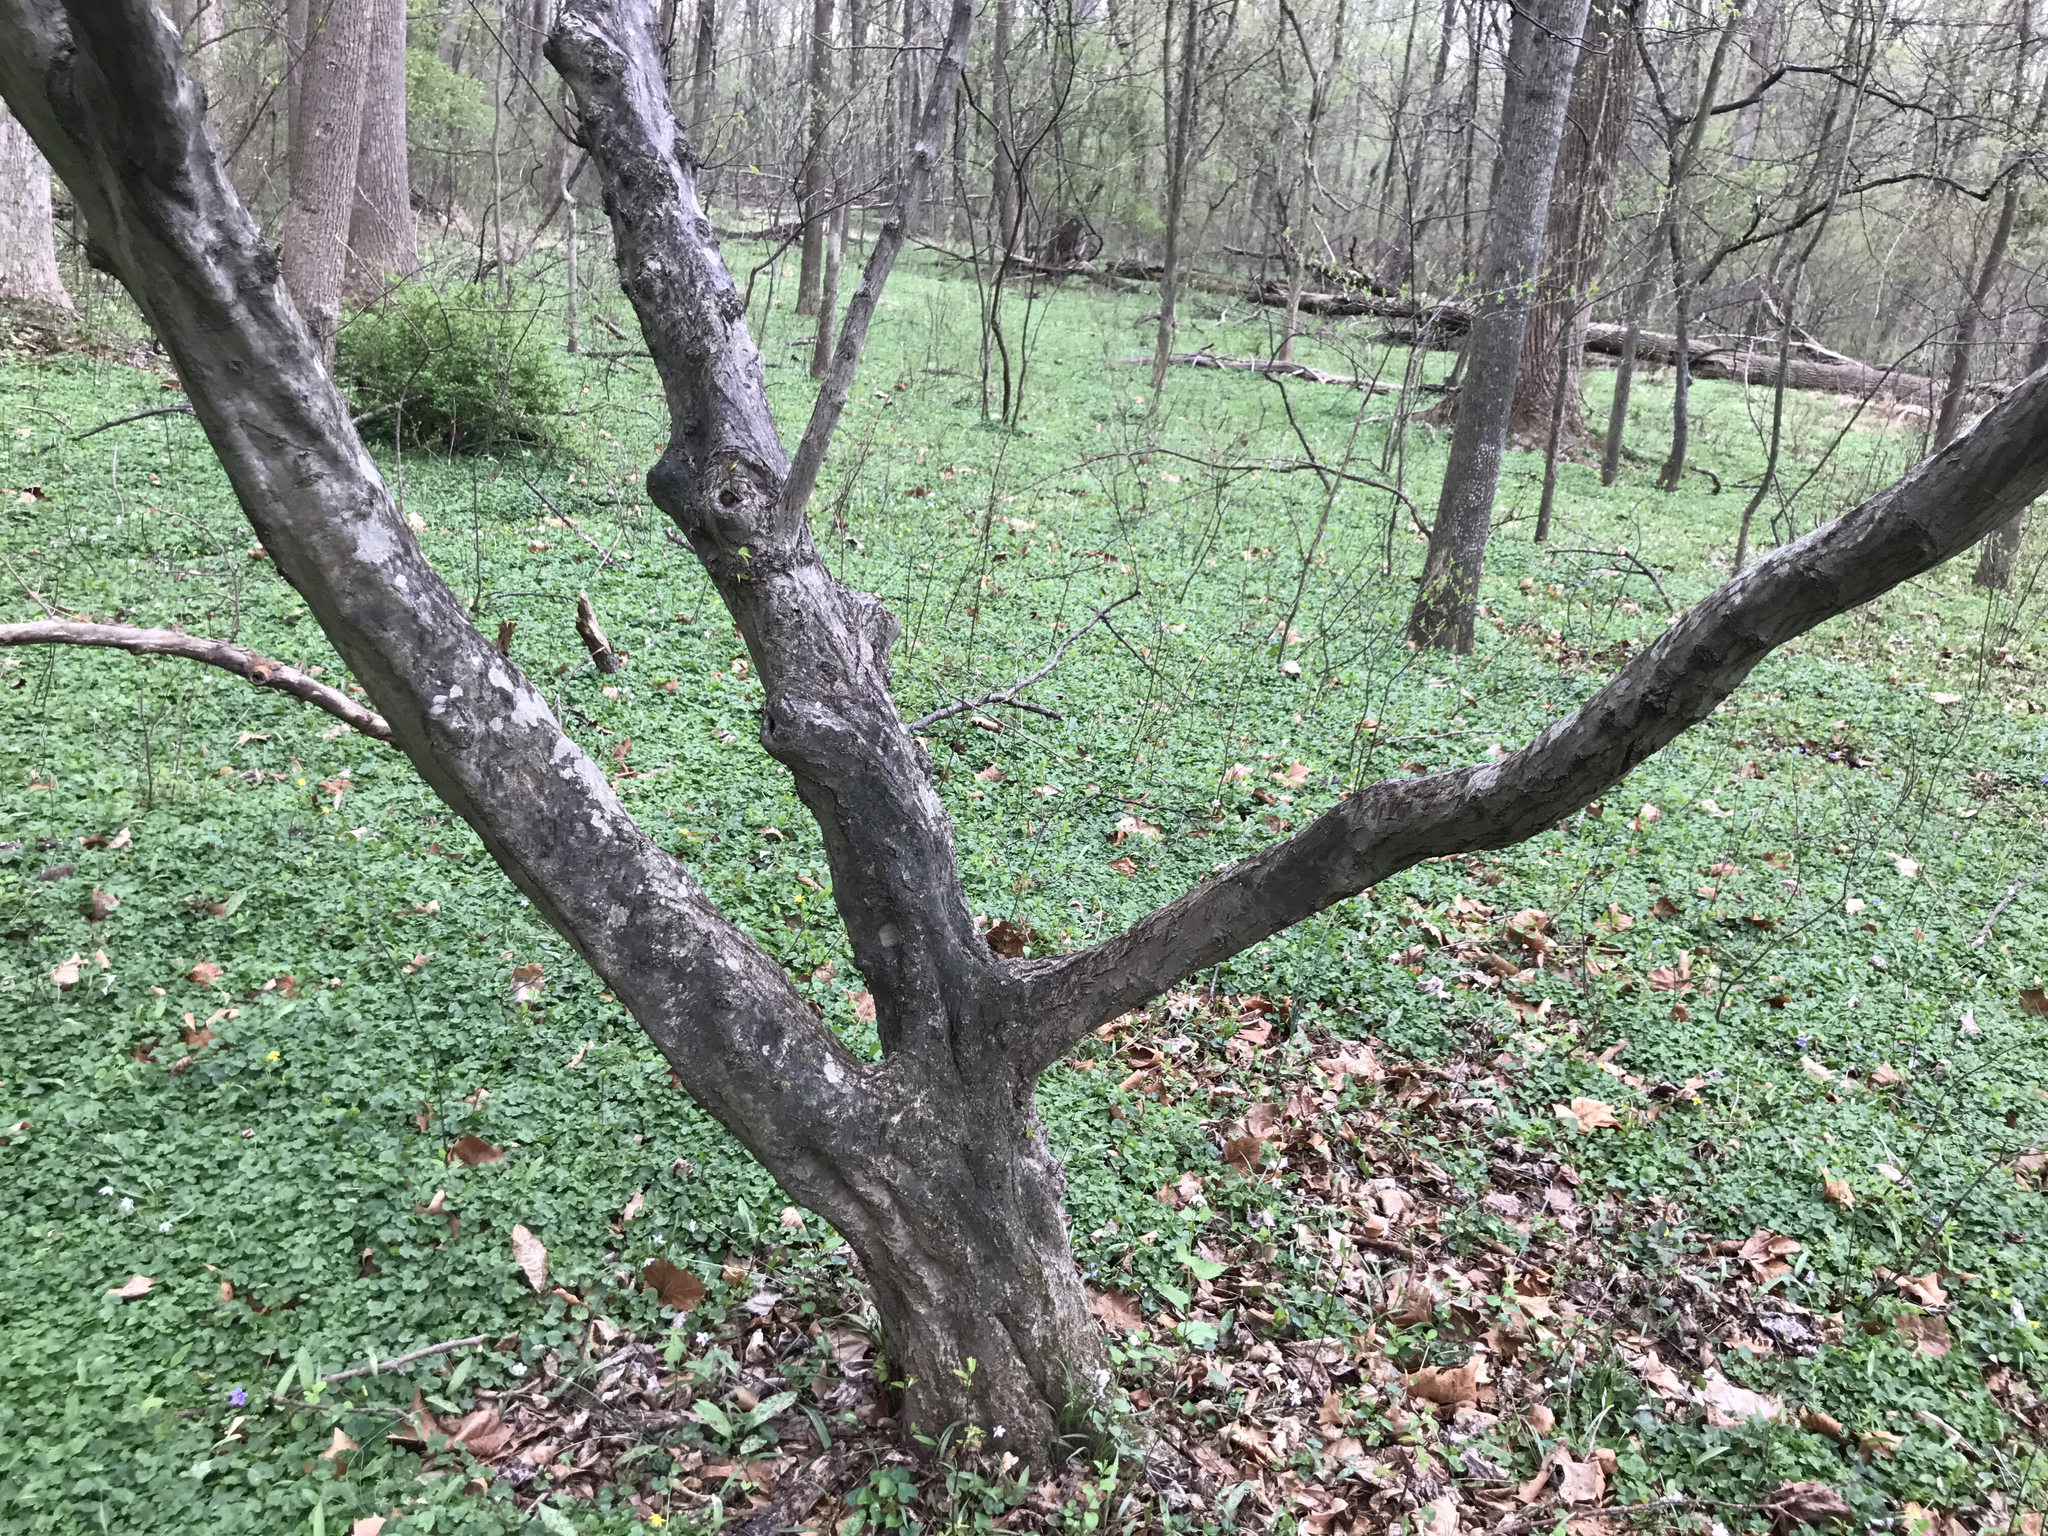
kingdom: Plantae
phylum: Tracheophyta
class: Magnoliopsida
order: Fagales
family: Betulaceae
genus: Carpinus
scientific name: Carpinus caroliniana
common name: American hornbeam
